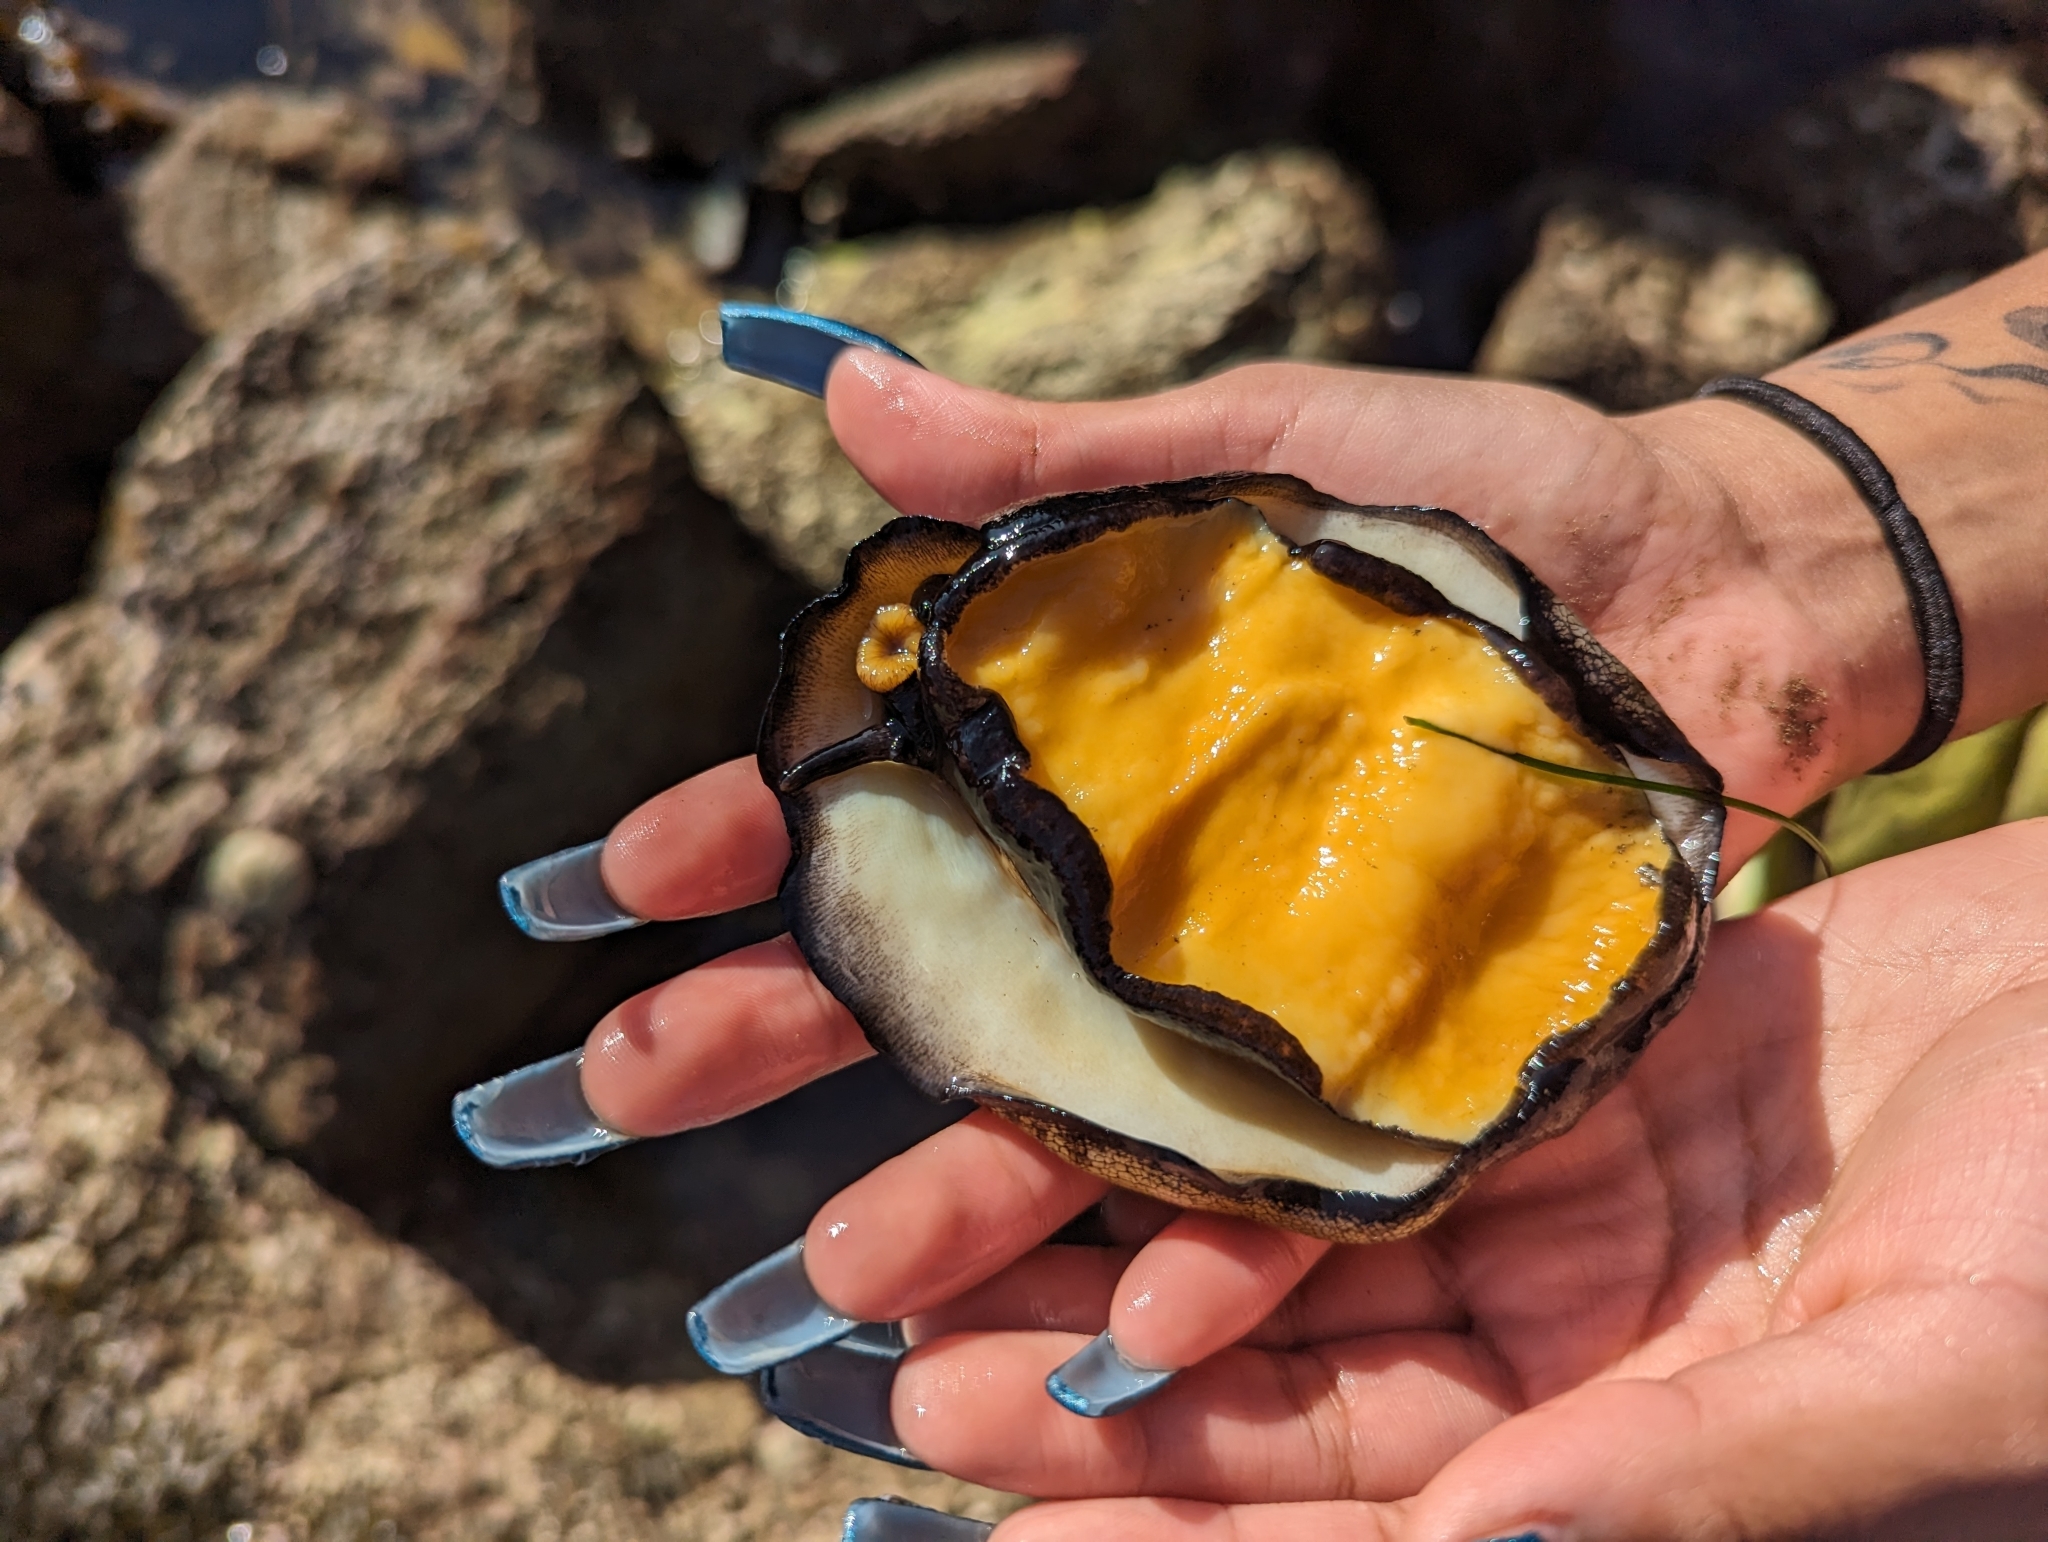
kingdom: Animalia
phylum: Mollusca
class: Gastropoda
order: Lepetellida
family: Fissurellidae
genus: Megathura
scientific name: Megathura crenulata
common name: Giant keyhole limpet
